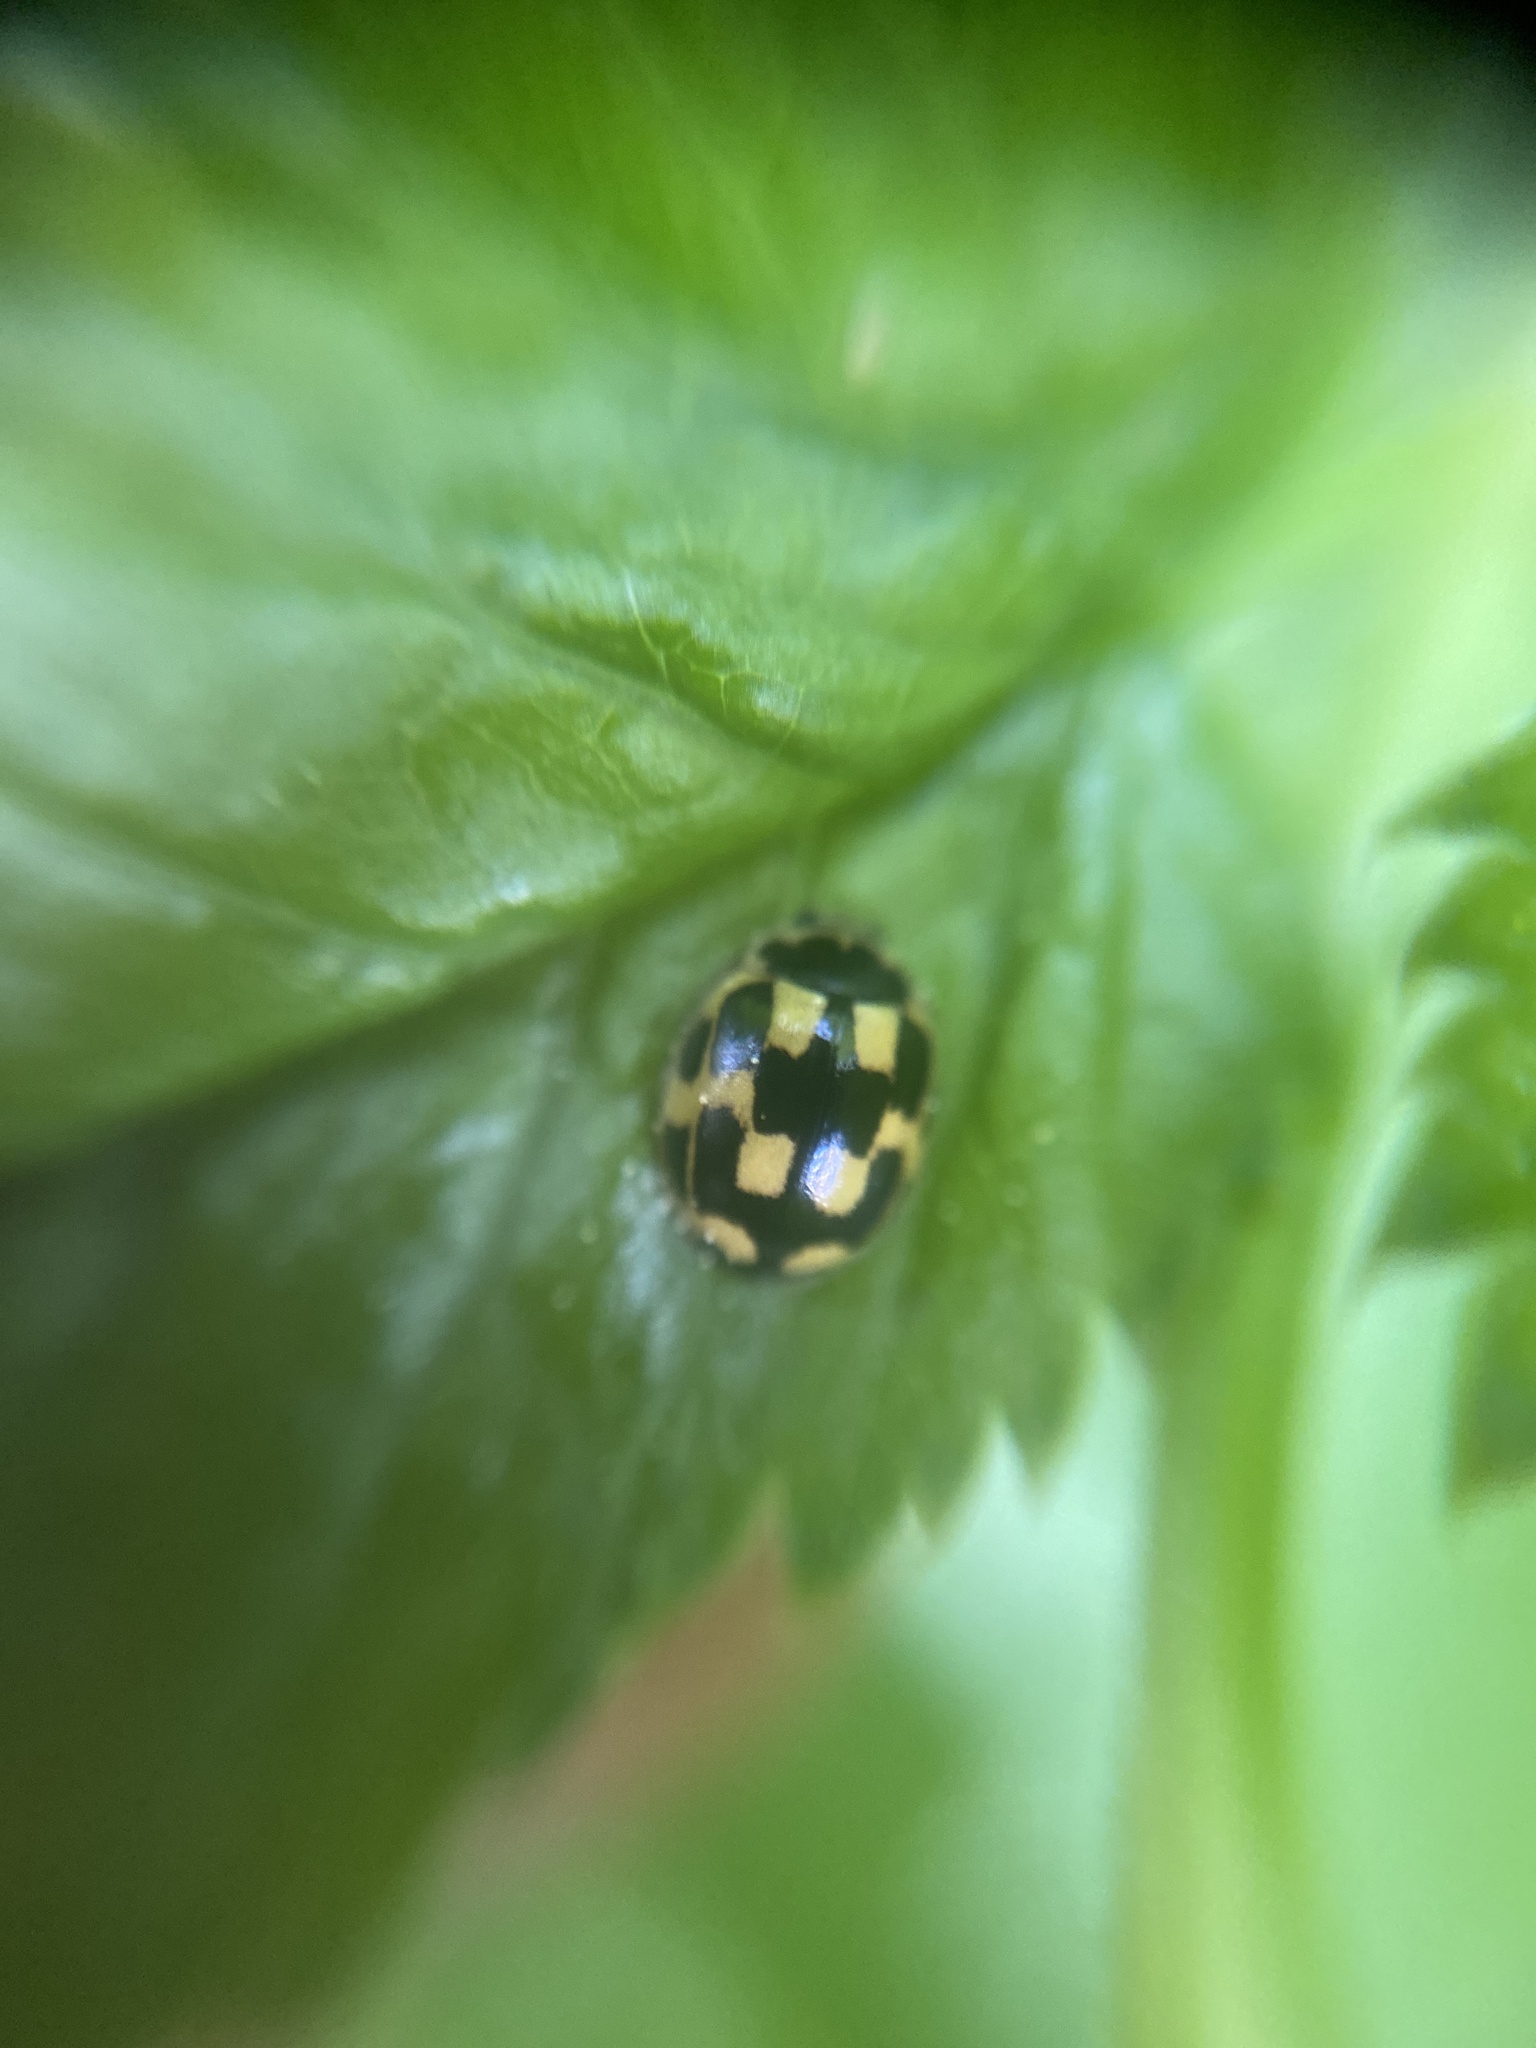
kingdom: Animalia
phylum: Arthropoda
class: Insecta
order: Coleoptera
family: Coccinellidae
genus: Propylaea
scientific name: Propylaea quatuordecimpunctata
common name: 14-spotted ladybird beetle
